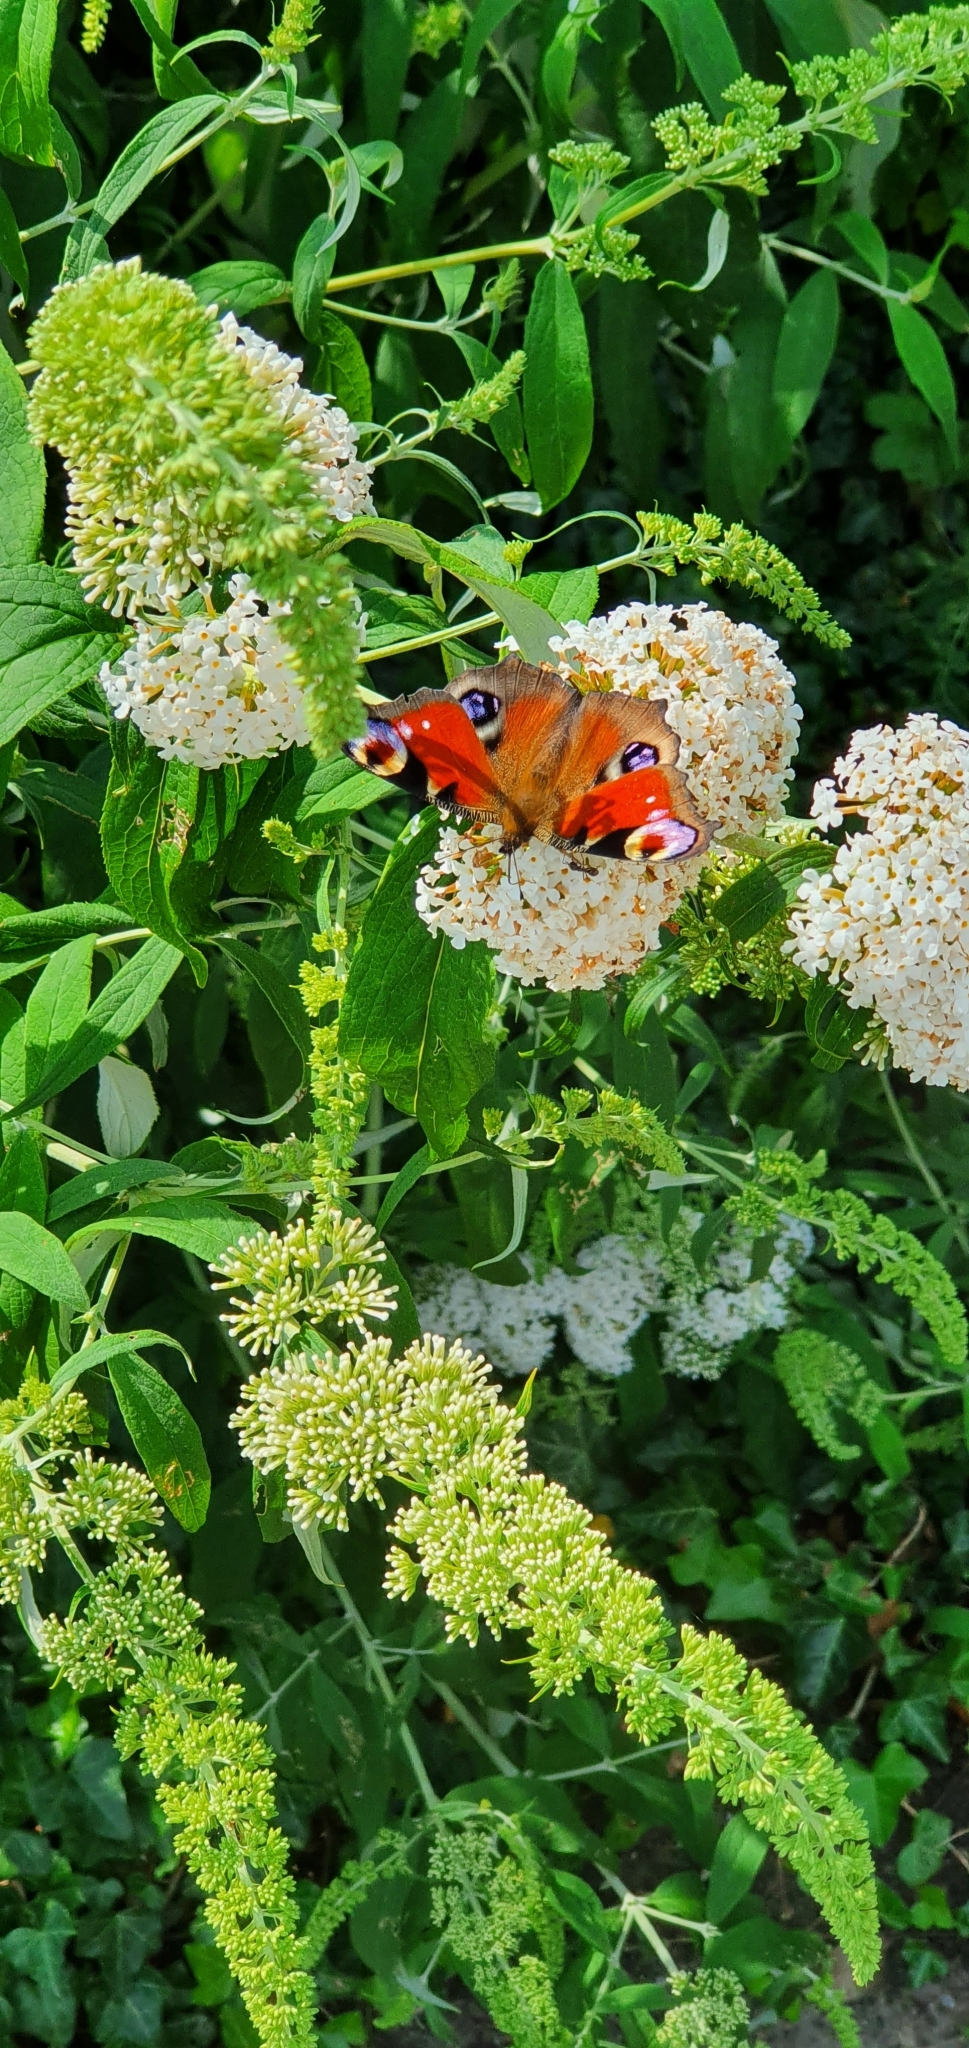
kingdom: Animalia
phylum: Arthropoda
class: Insecta
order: Lepidoptera
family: Nymphalidae
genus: Aglais
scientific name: Aglais io
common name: Peacock
